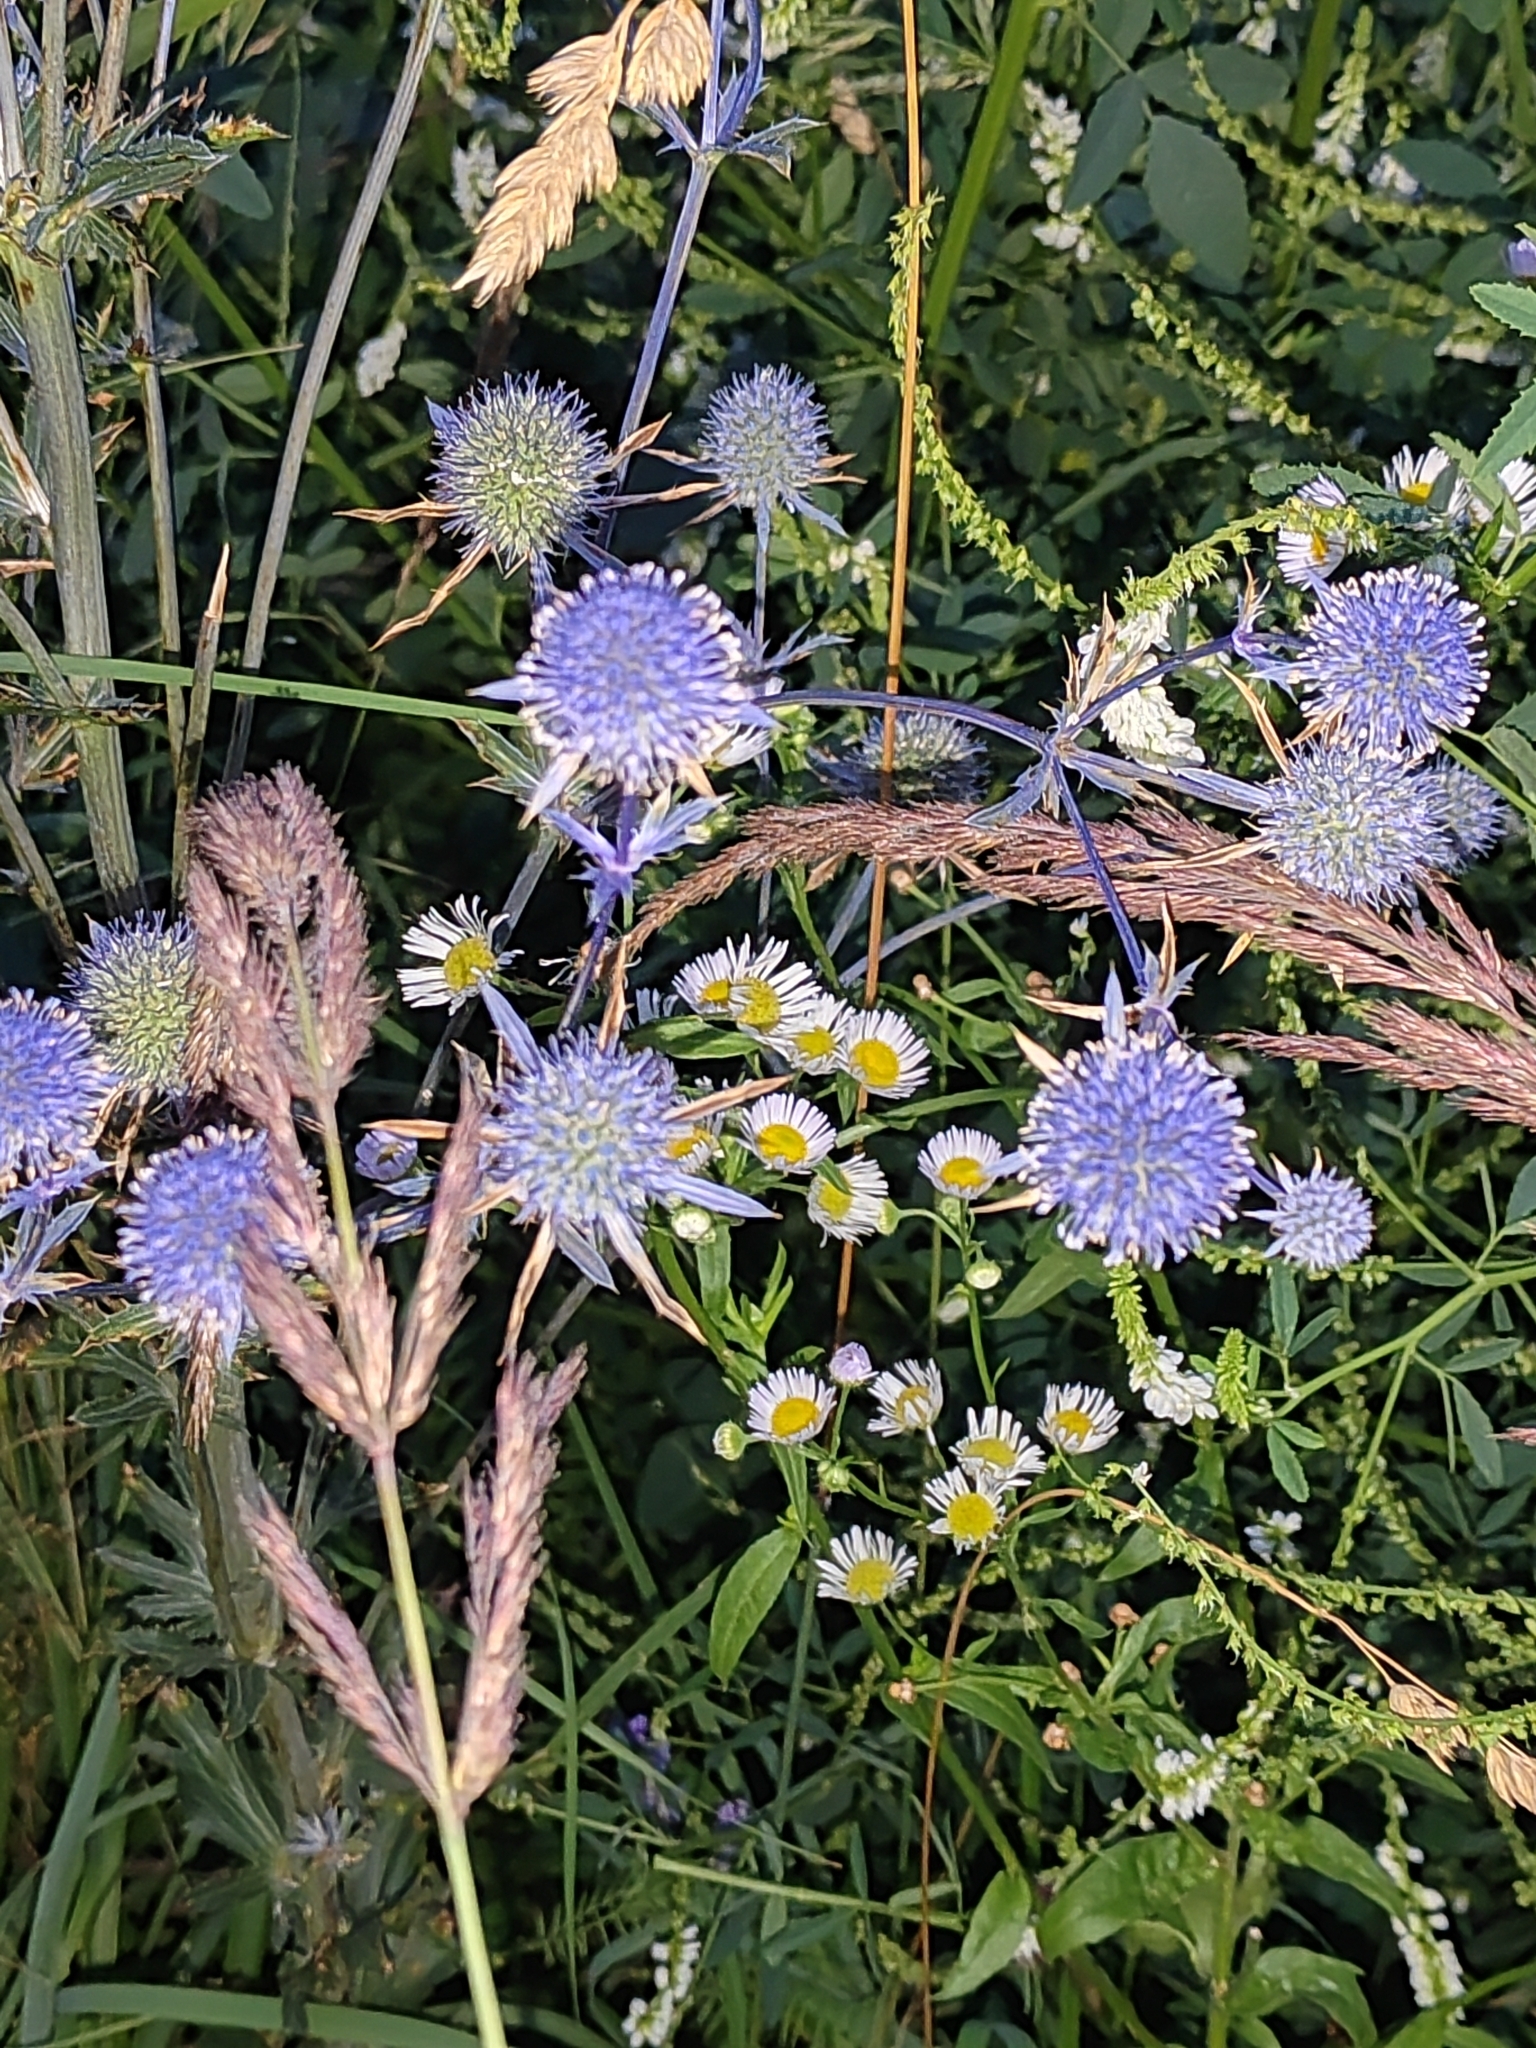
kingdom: Plantae
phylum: Tracheophyta
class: Magnoliopsida
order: Apiales
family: Apiaceae
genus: Eryngium
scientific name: Eryngium planum
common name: Blue eryngo
